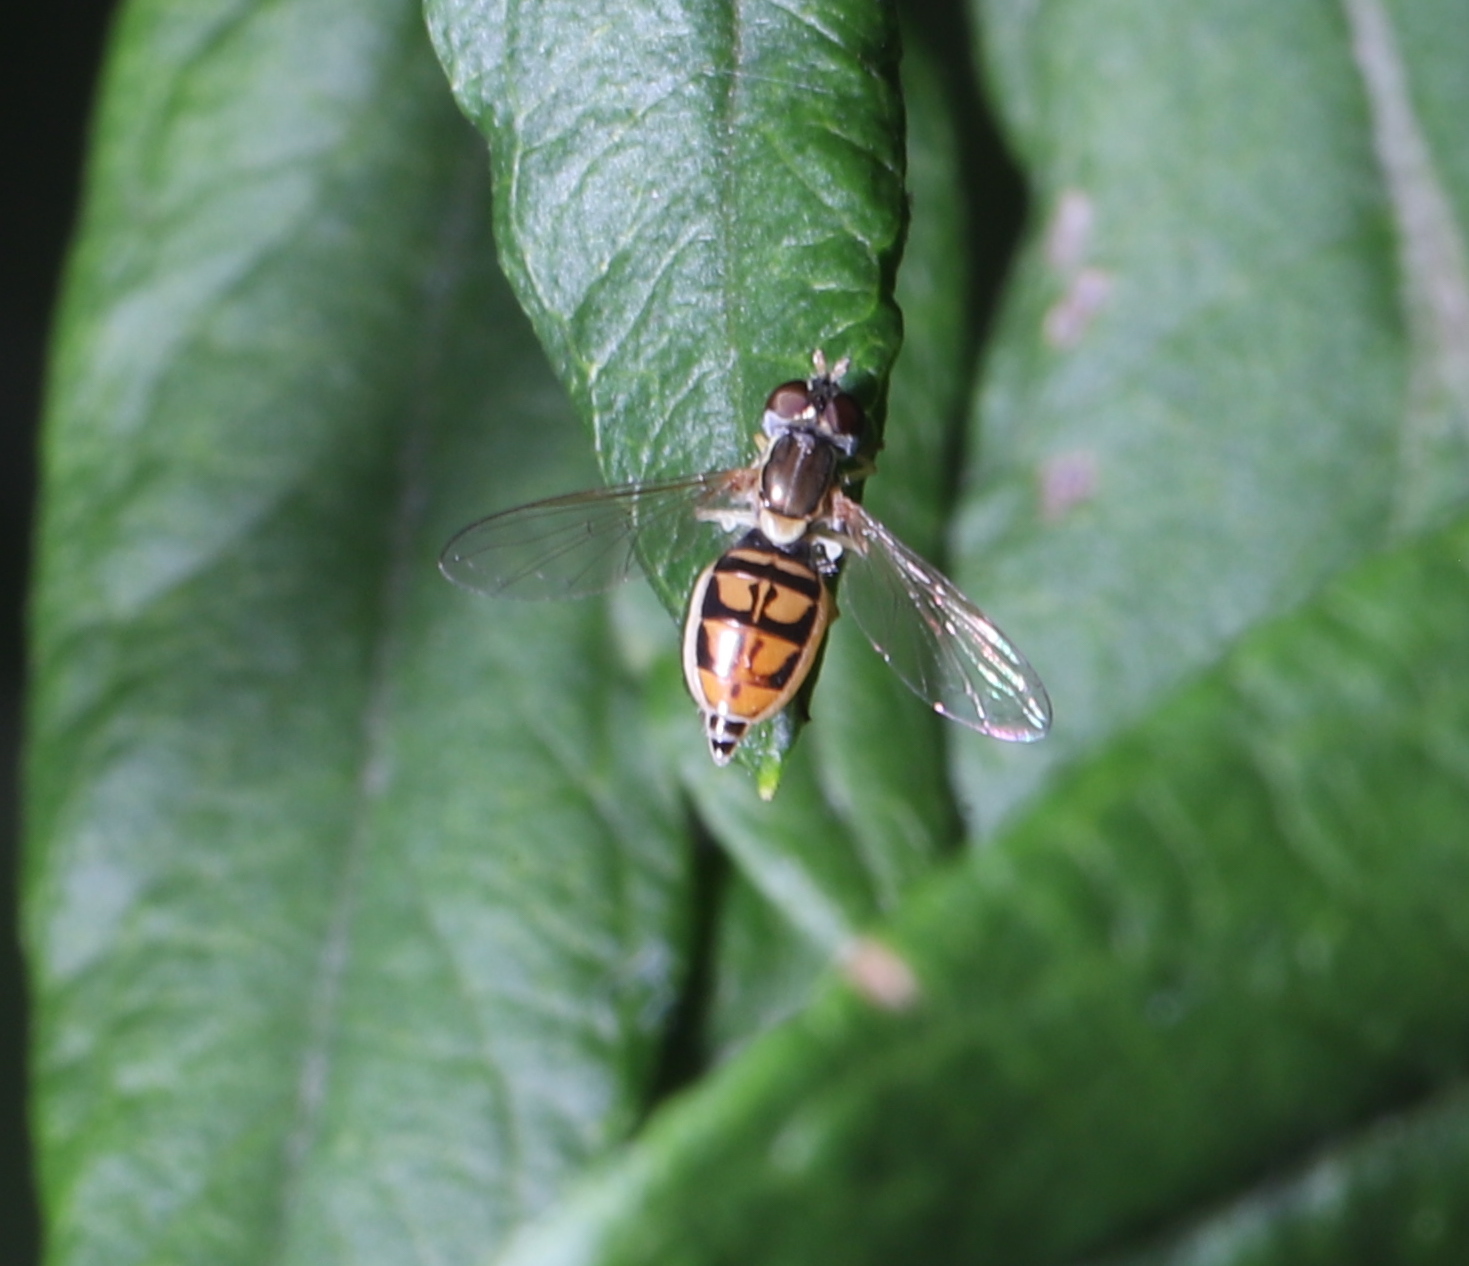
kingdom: Animalia
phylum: Arthropoda
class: Insecta
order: Diptera
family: Syrphidae
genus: Toxomerus
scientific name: Toxomerus marginatus
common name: Syrphid fly
